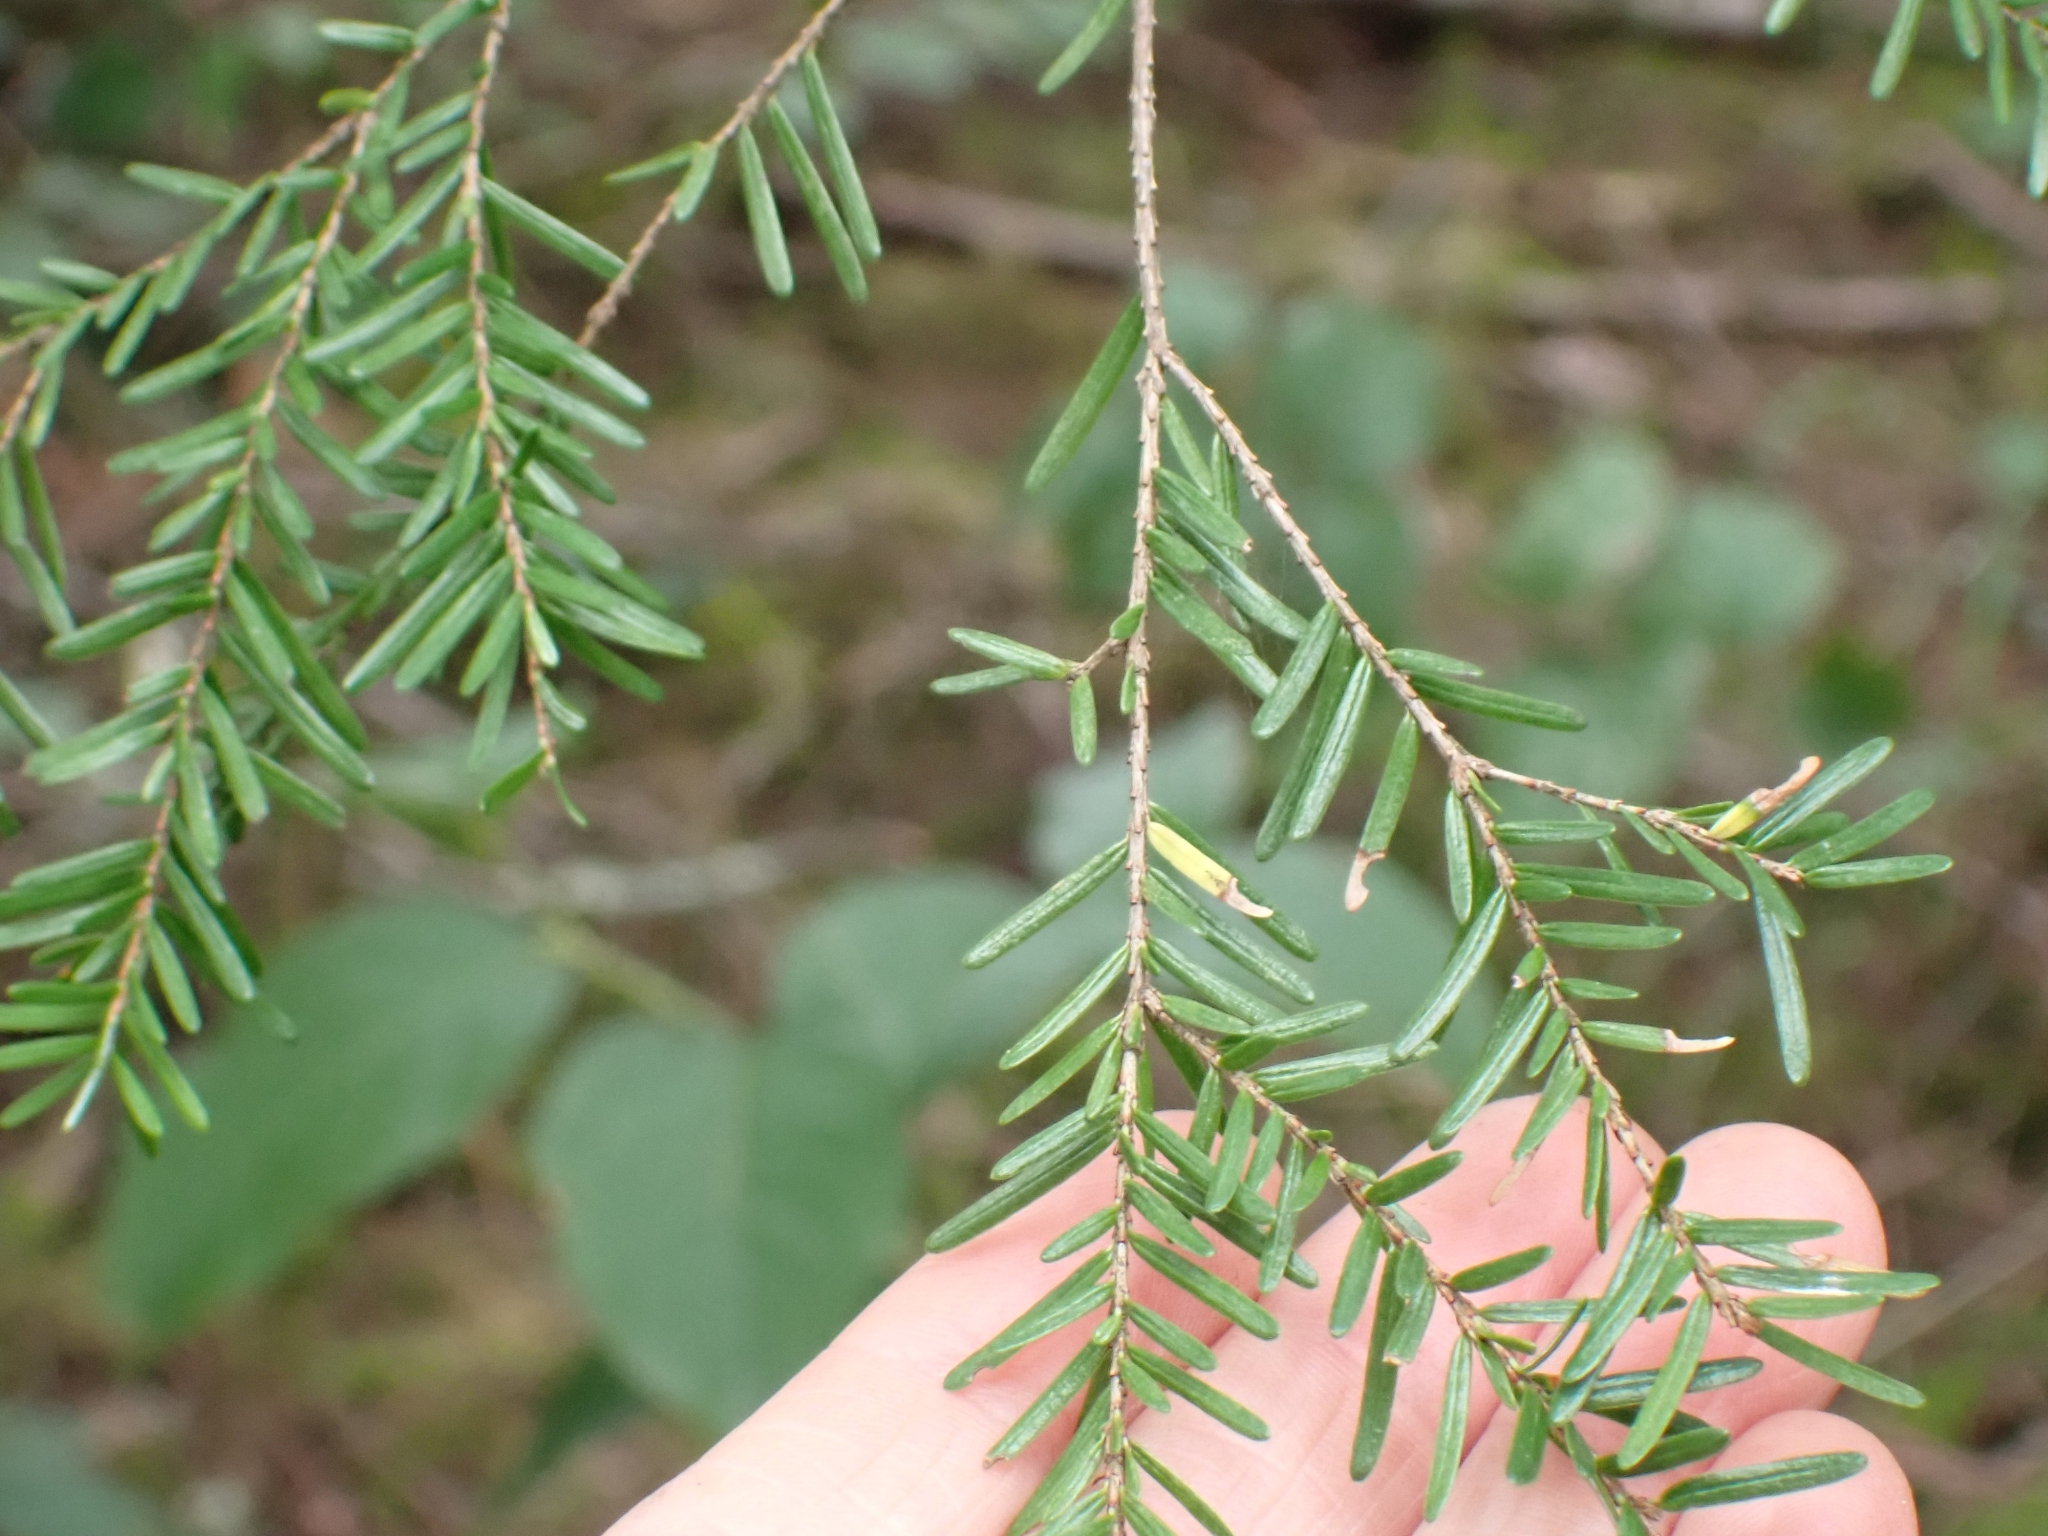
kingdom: Plantae
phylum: Tracheophyta
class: Pinopsida
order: Pinales
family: Pinaceae
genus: Tsuga
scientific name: Tsuga heterophylla
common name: Western hemlock
